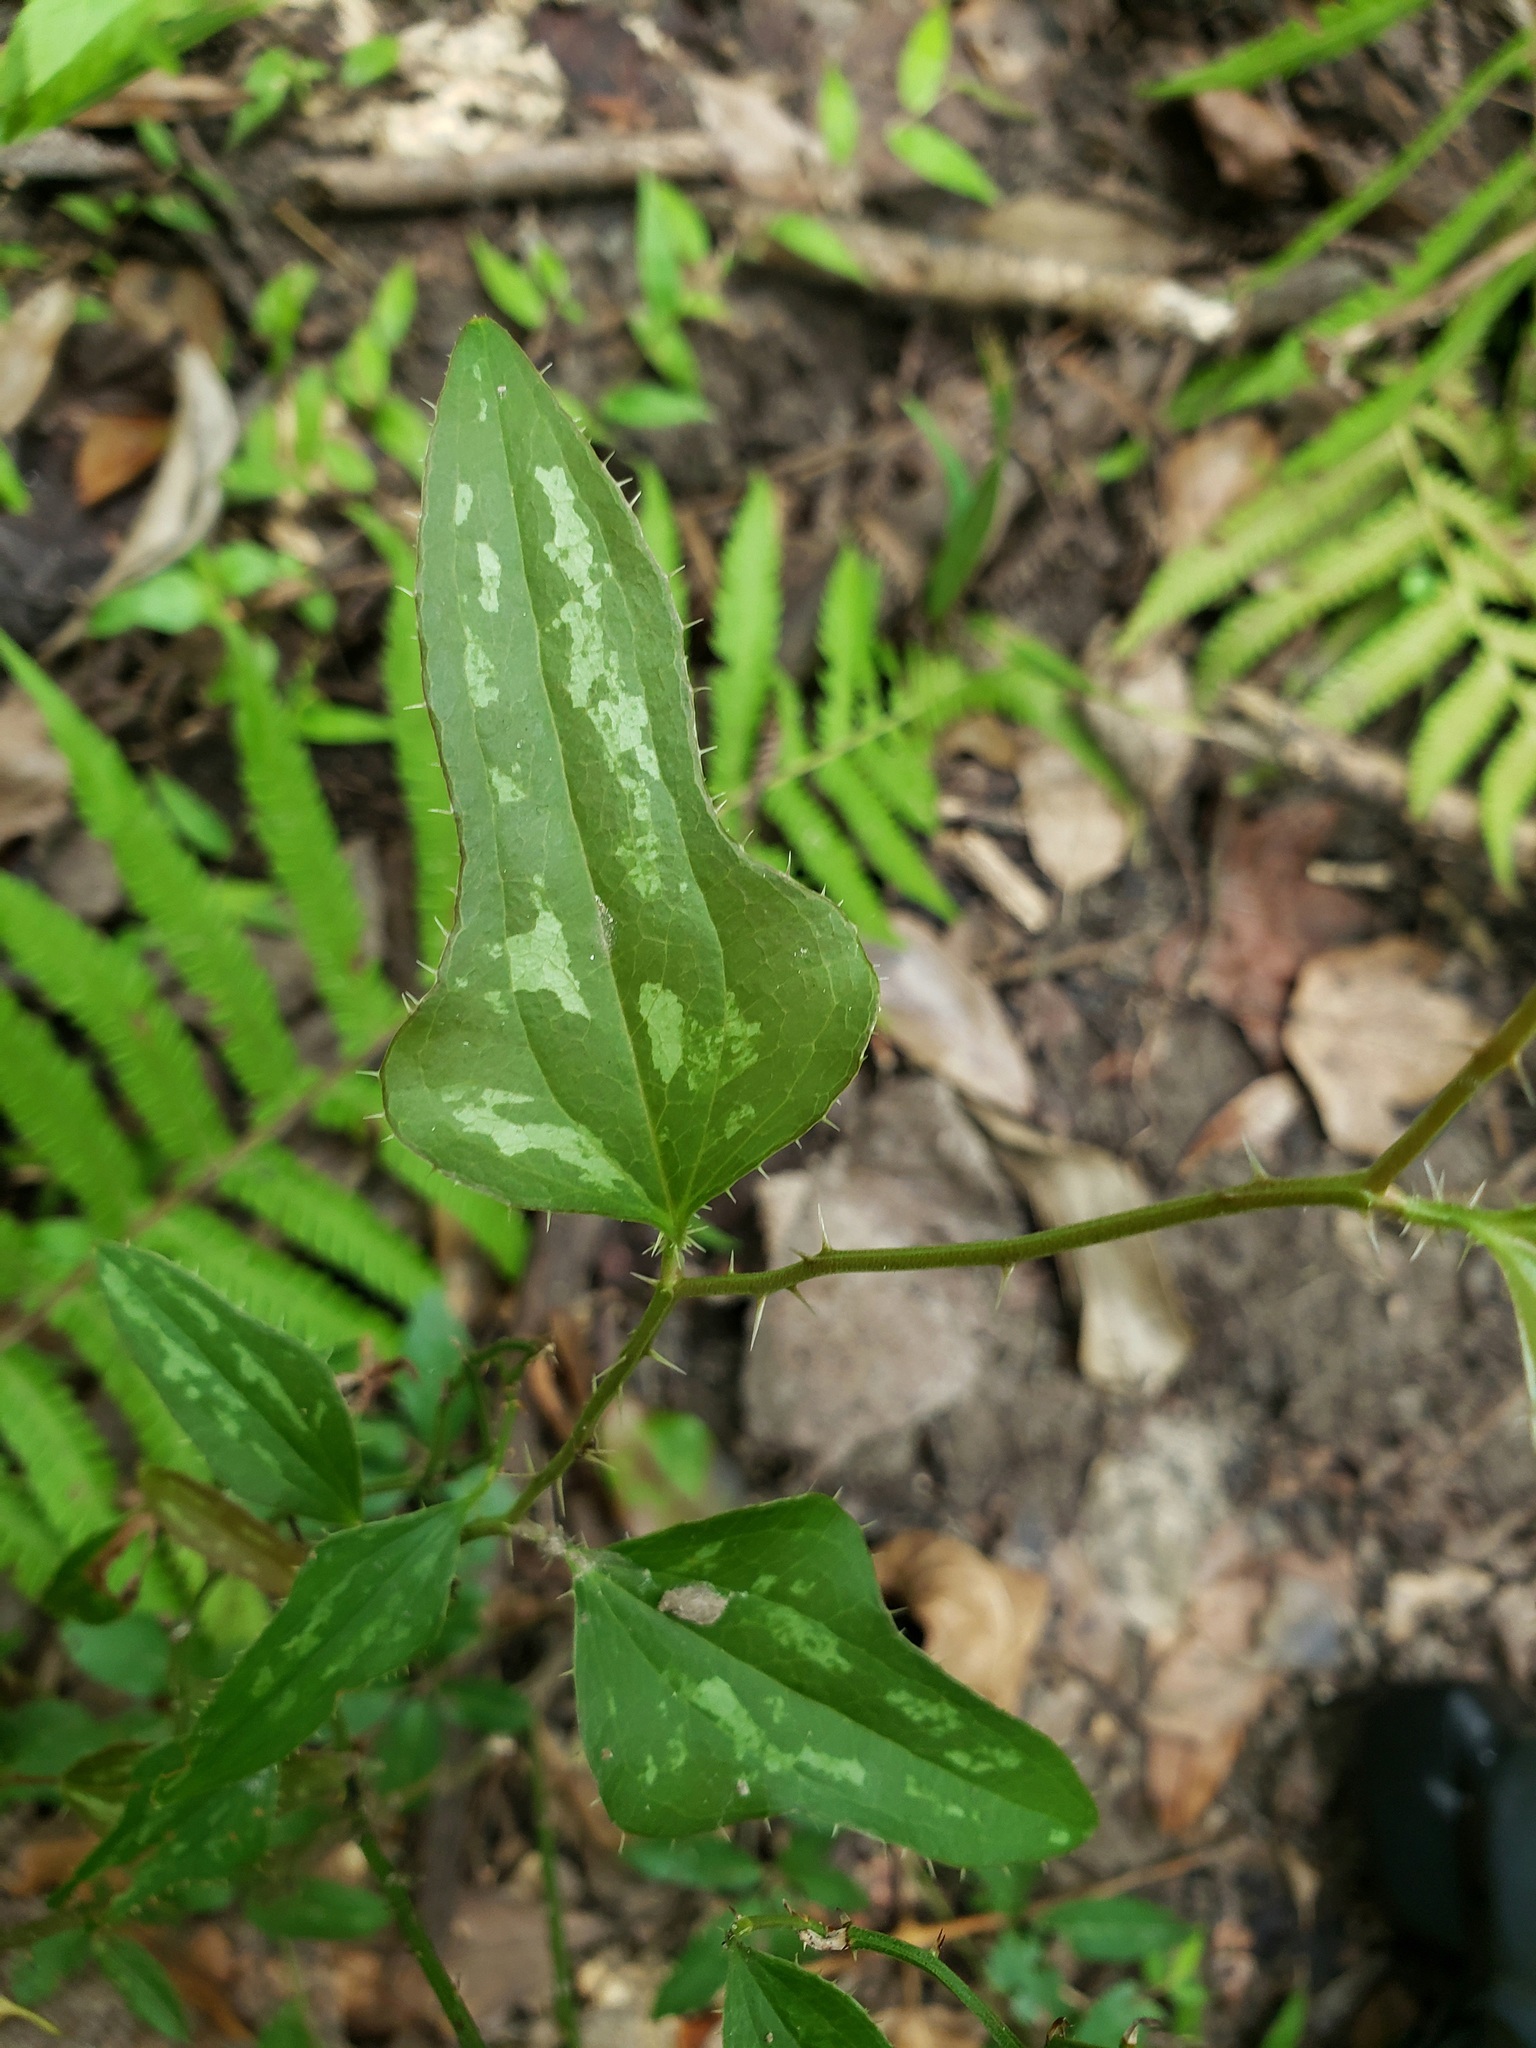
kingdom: Plantae
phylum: Tracheophyta
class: Liliopsida
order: Liliales
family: Smilacaceae
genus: Smilax
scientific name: Smilax bona-nox
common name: Catbrier
